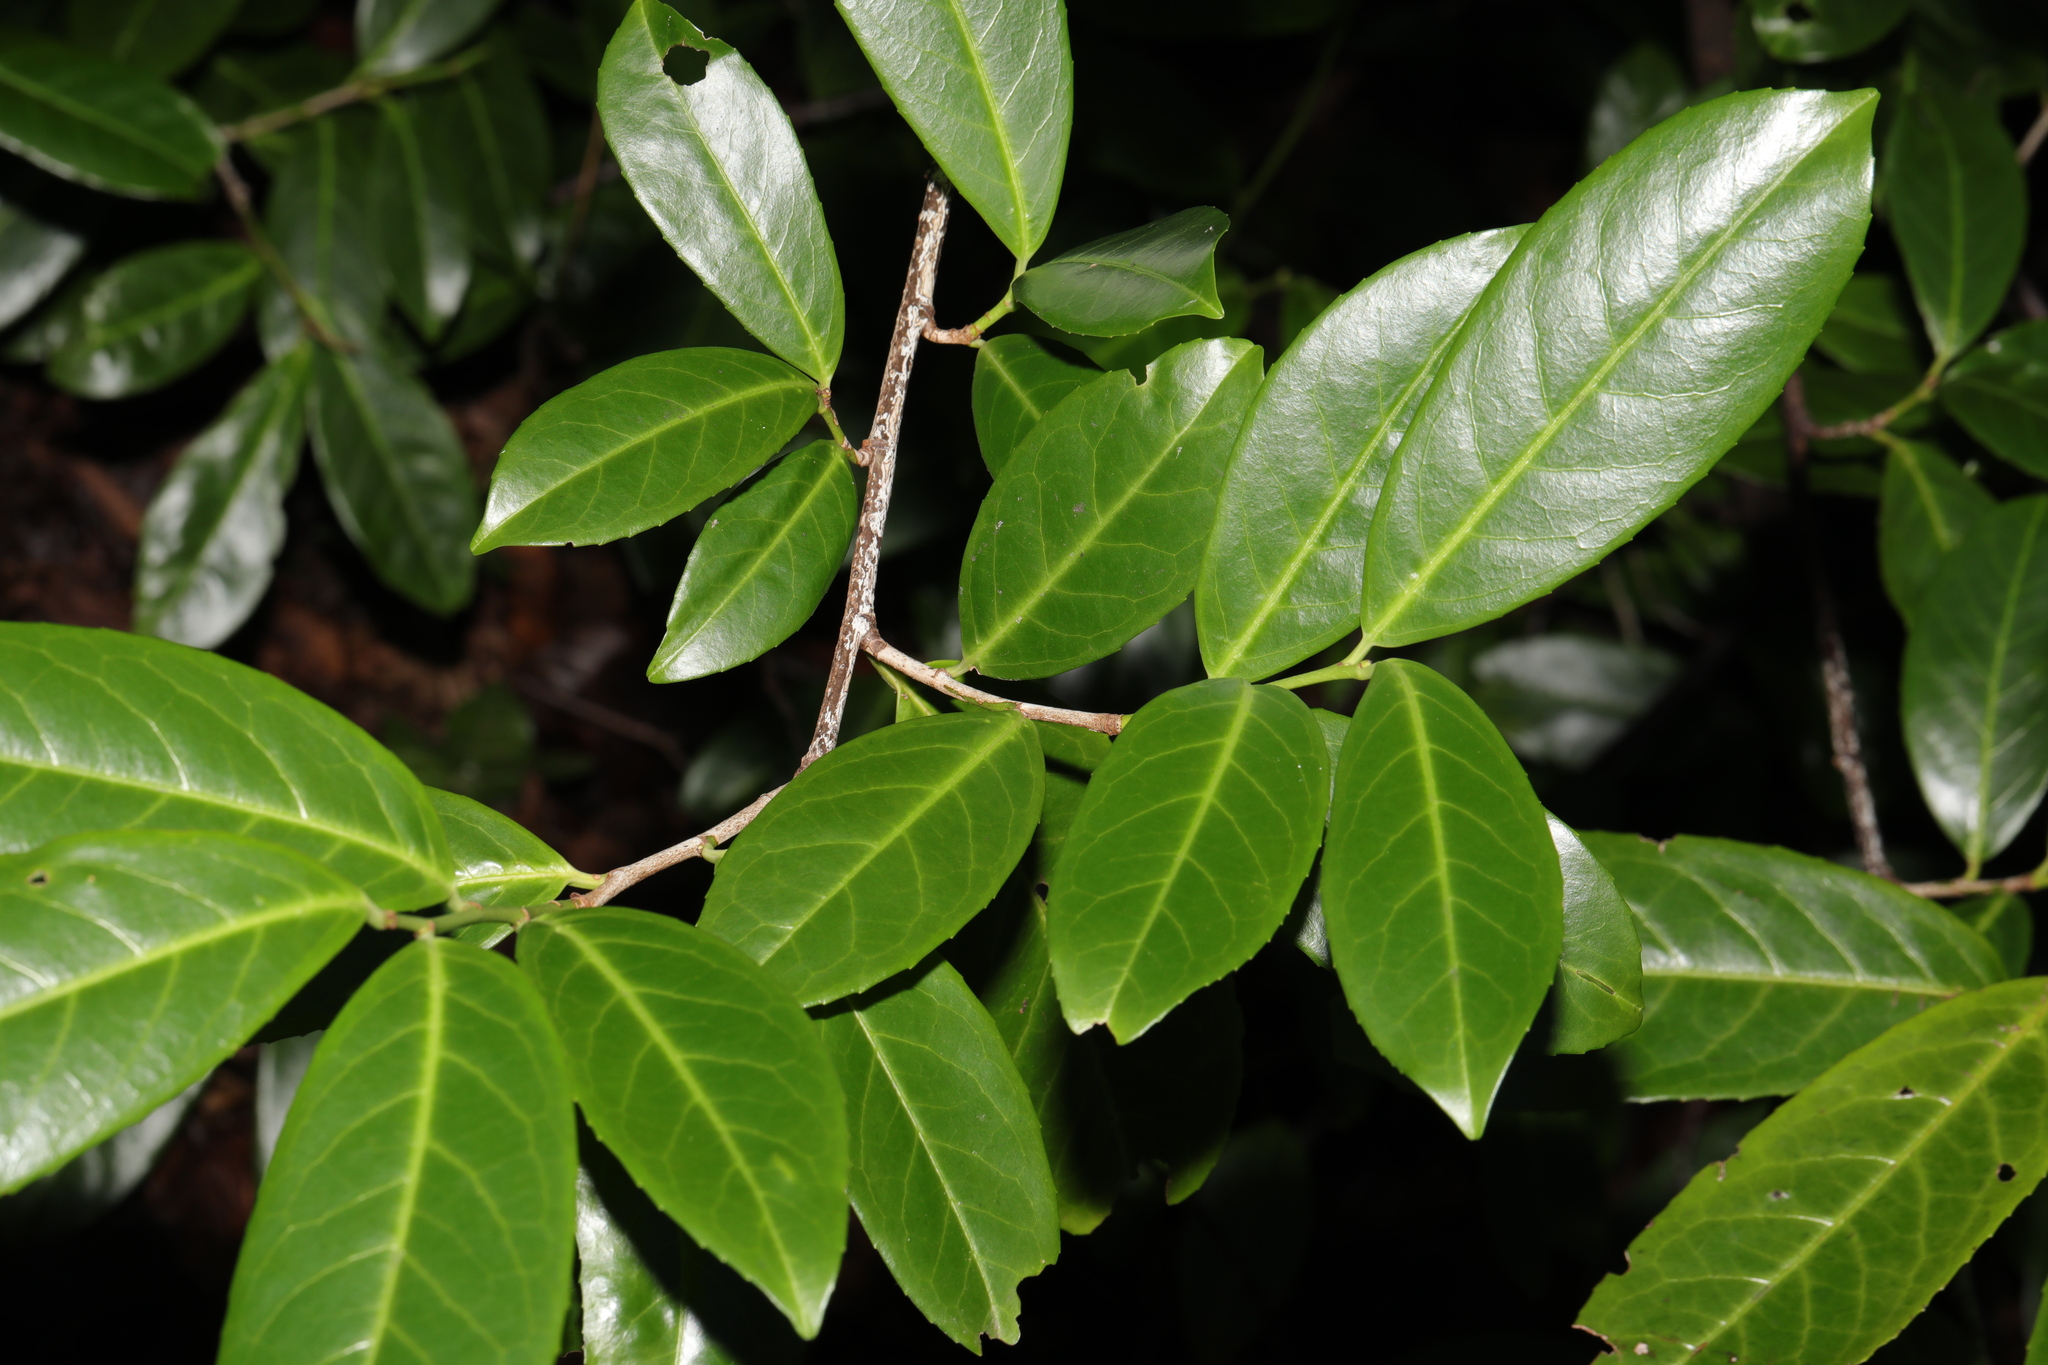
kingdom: Plantae
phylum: Tracheophyta
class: Magnoliopsida
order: Rosales
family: Rosaceae
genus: Prunus
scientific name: Prunus laurocerasus
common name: Cherry laurel
